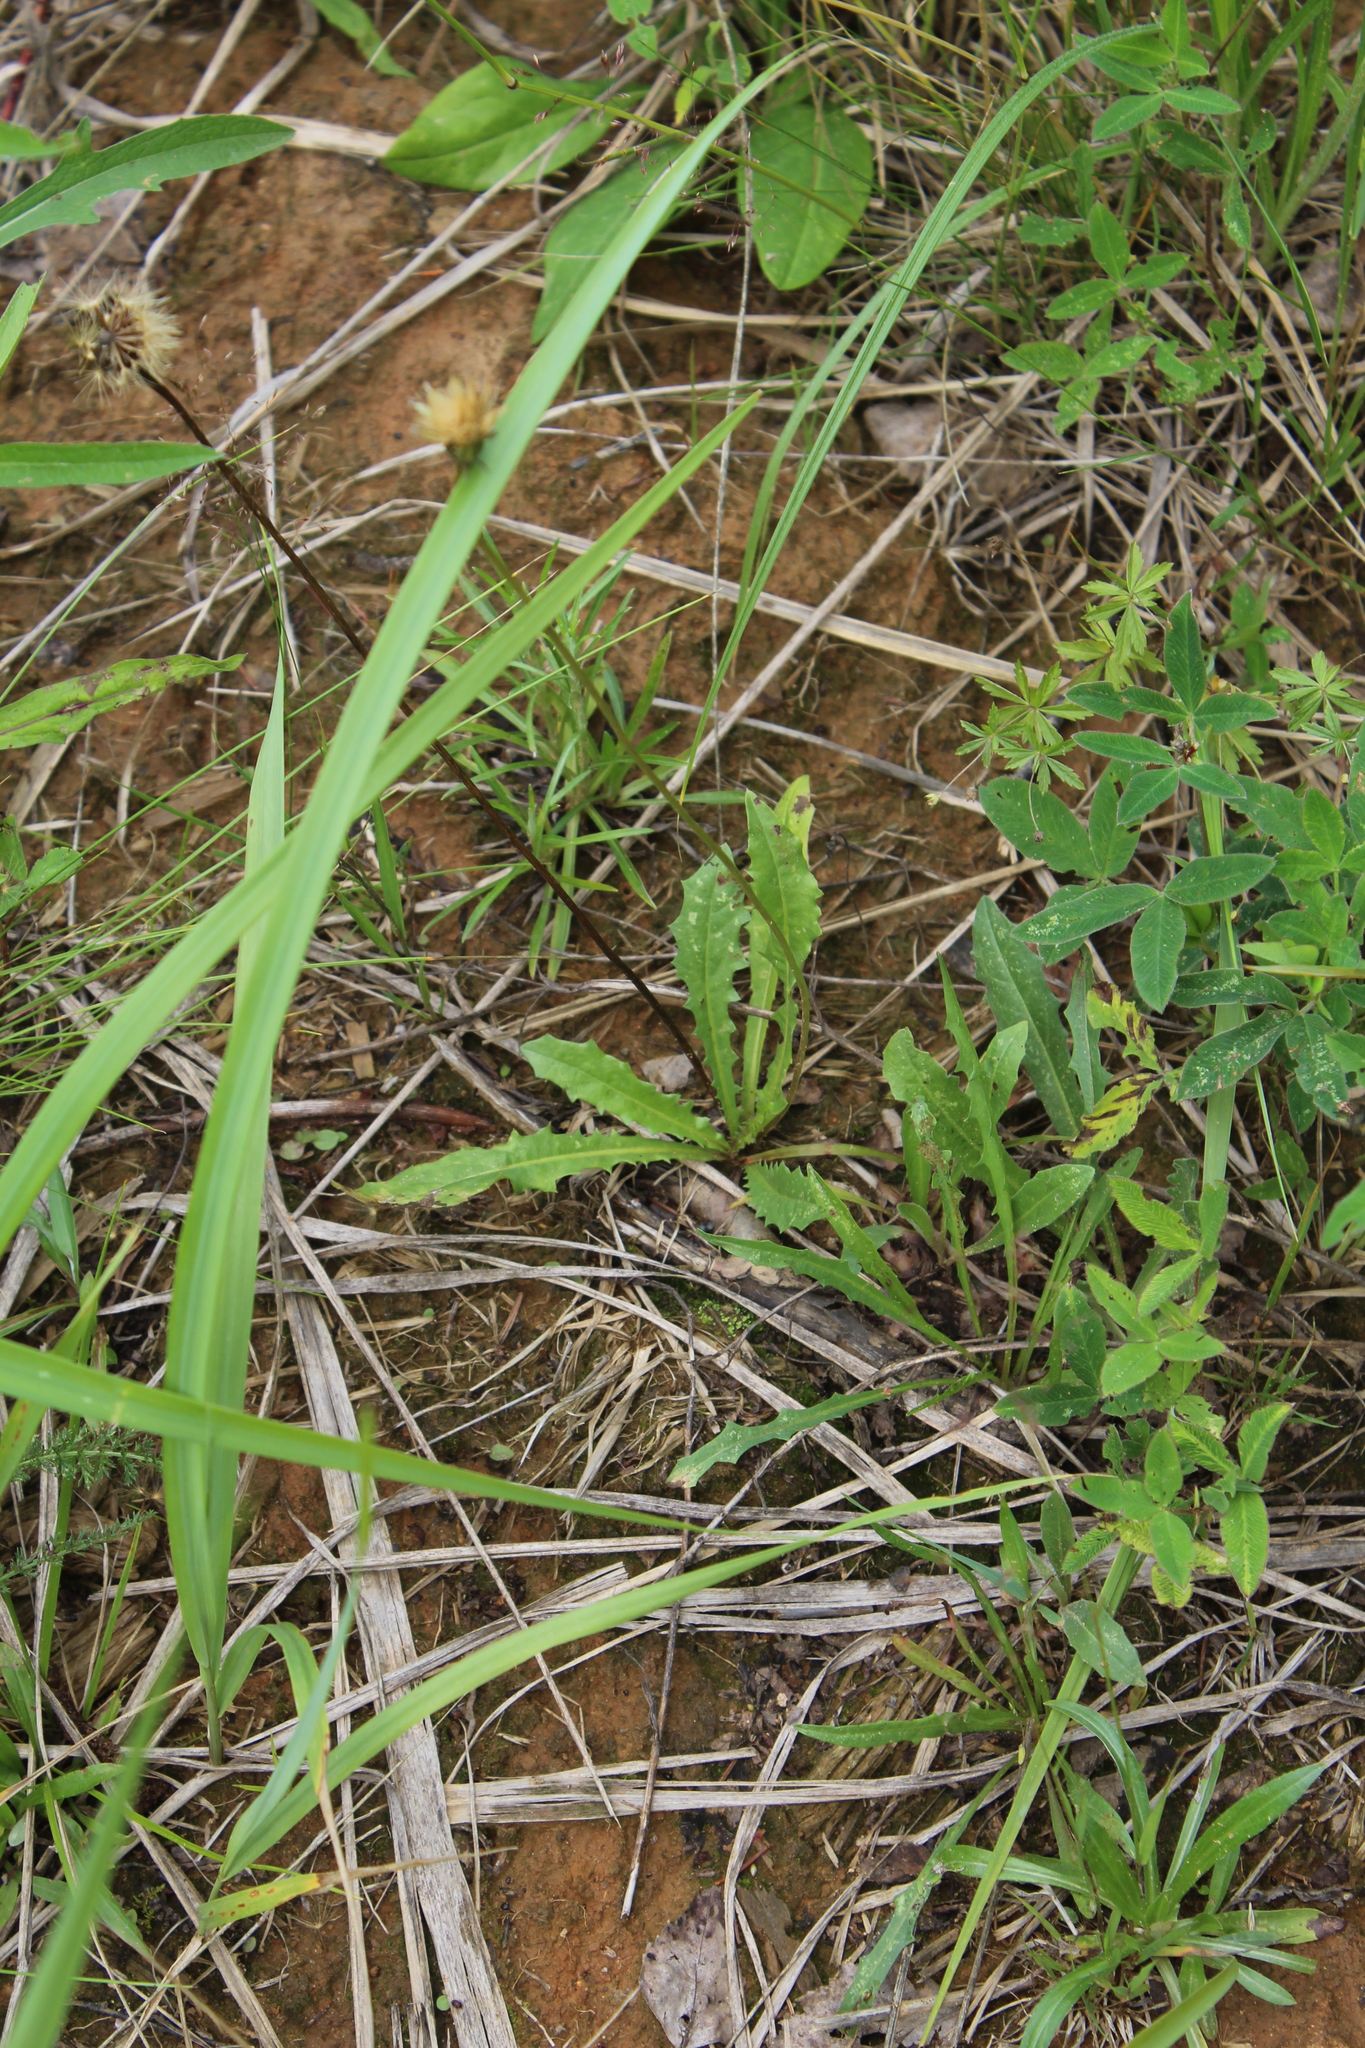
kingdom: Plantae
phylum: Tracheophyta
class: Magnoliopsida
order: Asterales
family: Asteraceae
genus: Leontodon
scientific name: Leontodon hispidus
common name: Rough hawkbit
